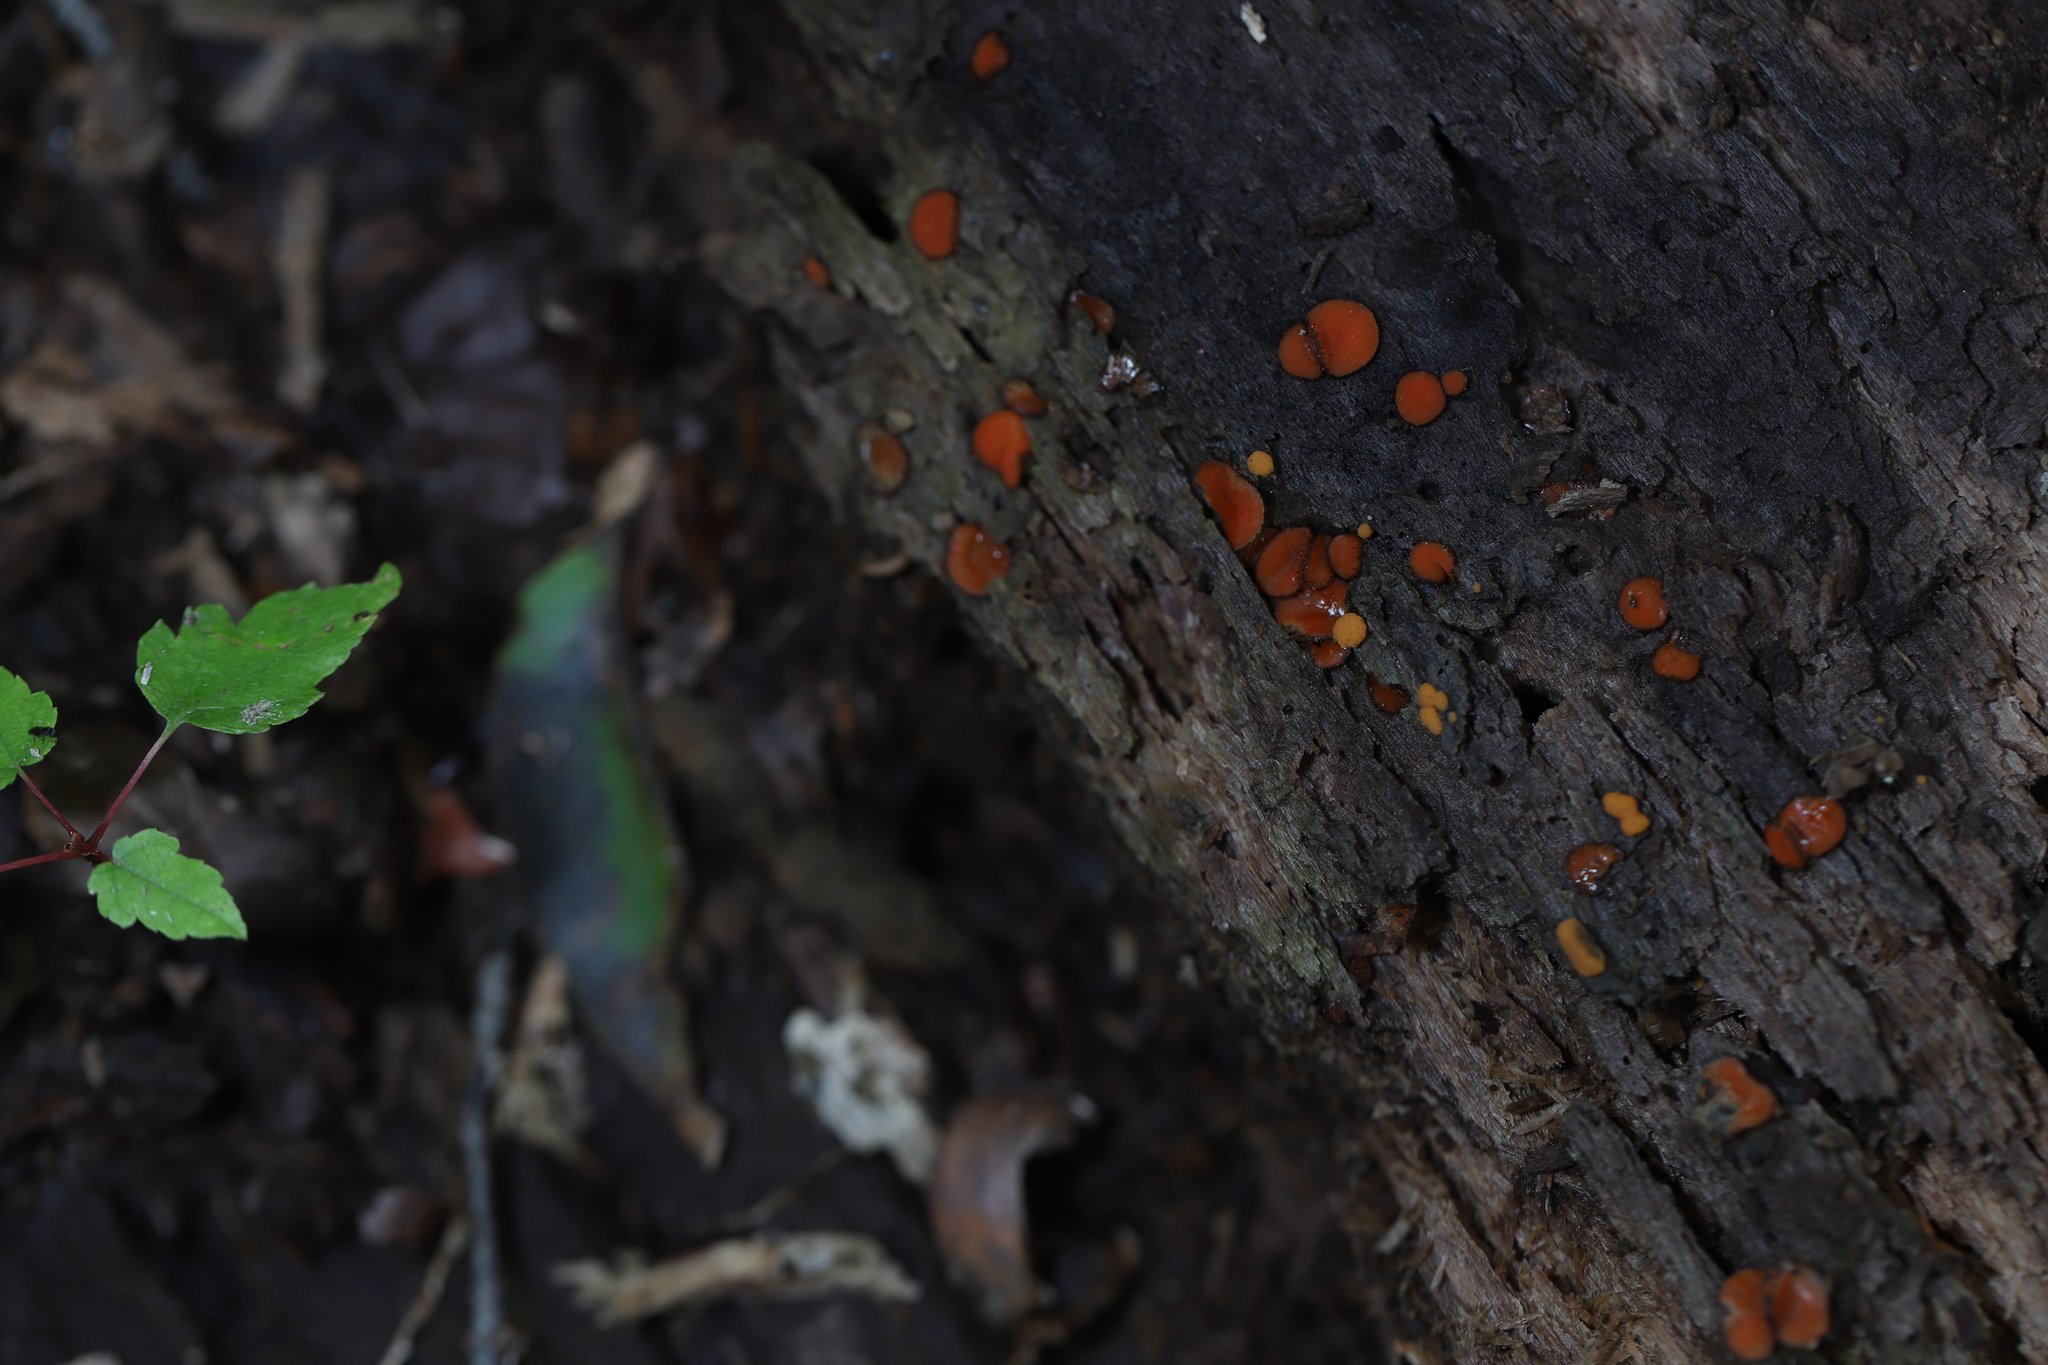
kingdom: Fungi
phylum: Ascomycota
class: Pezizomycetes
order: Pezizales
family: Pyronemataceae
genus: Scutellinia
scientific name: Scutellinia
